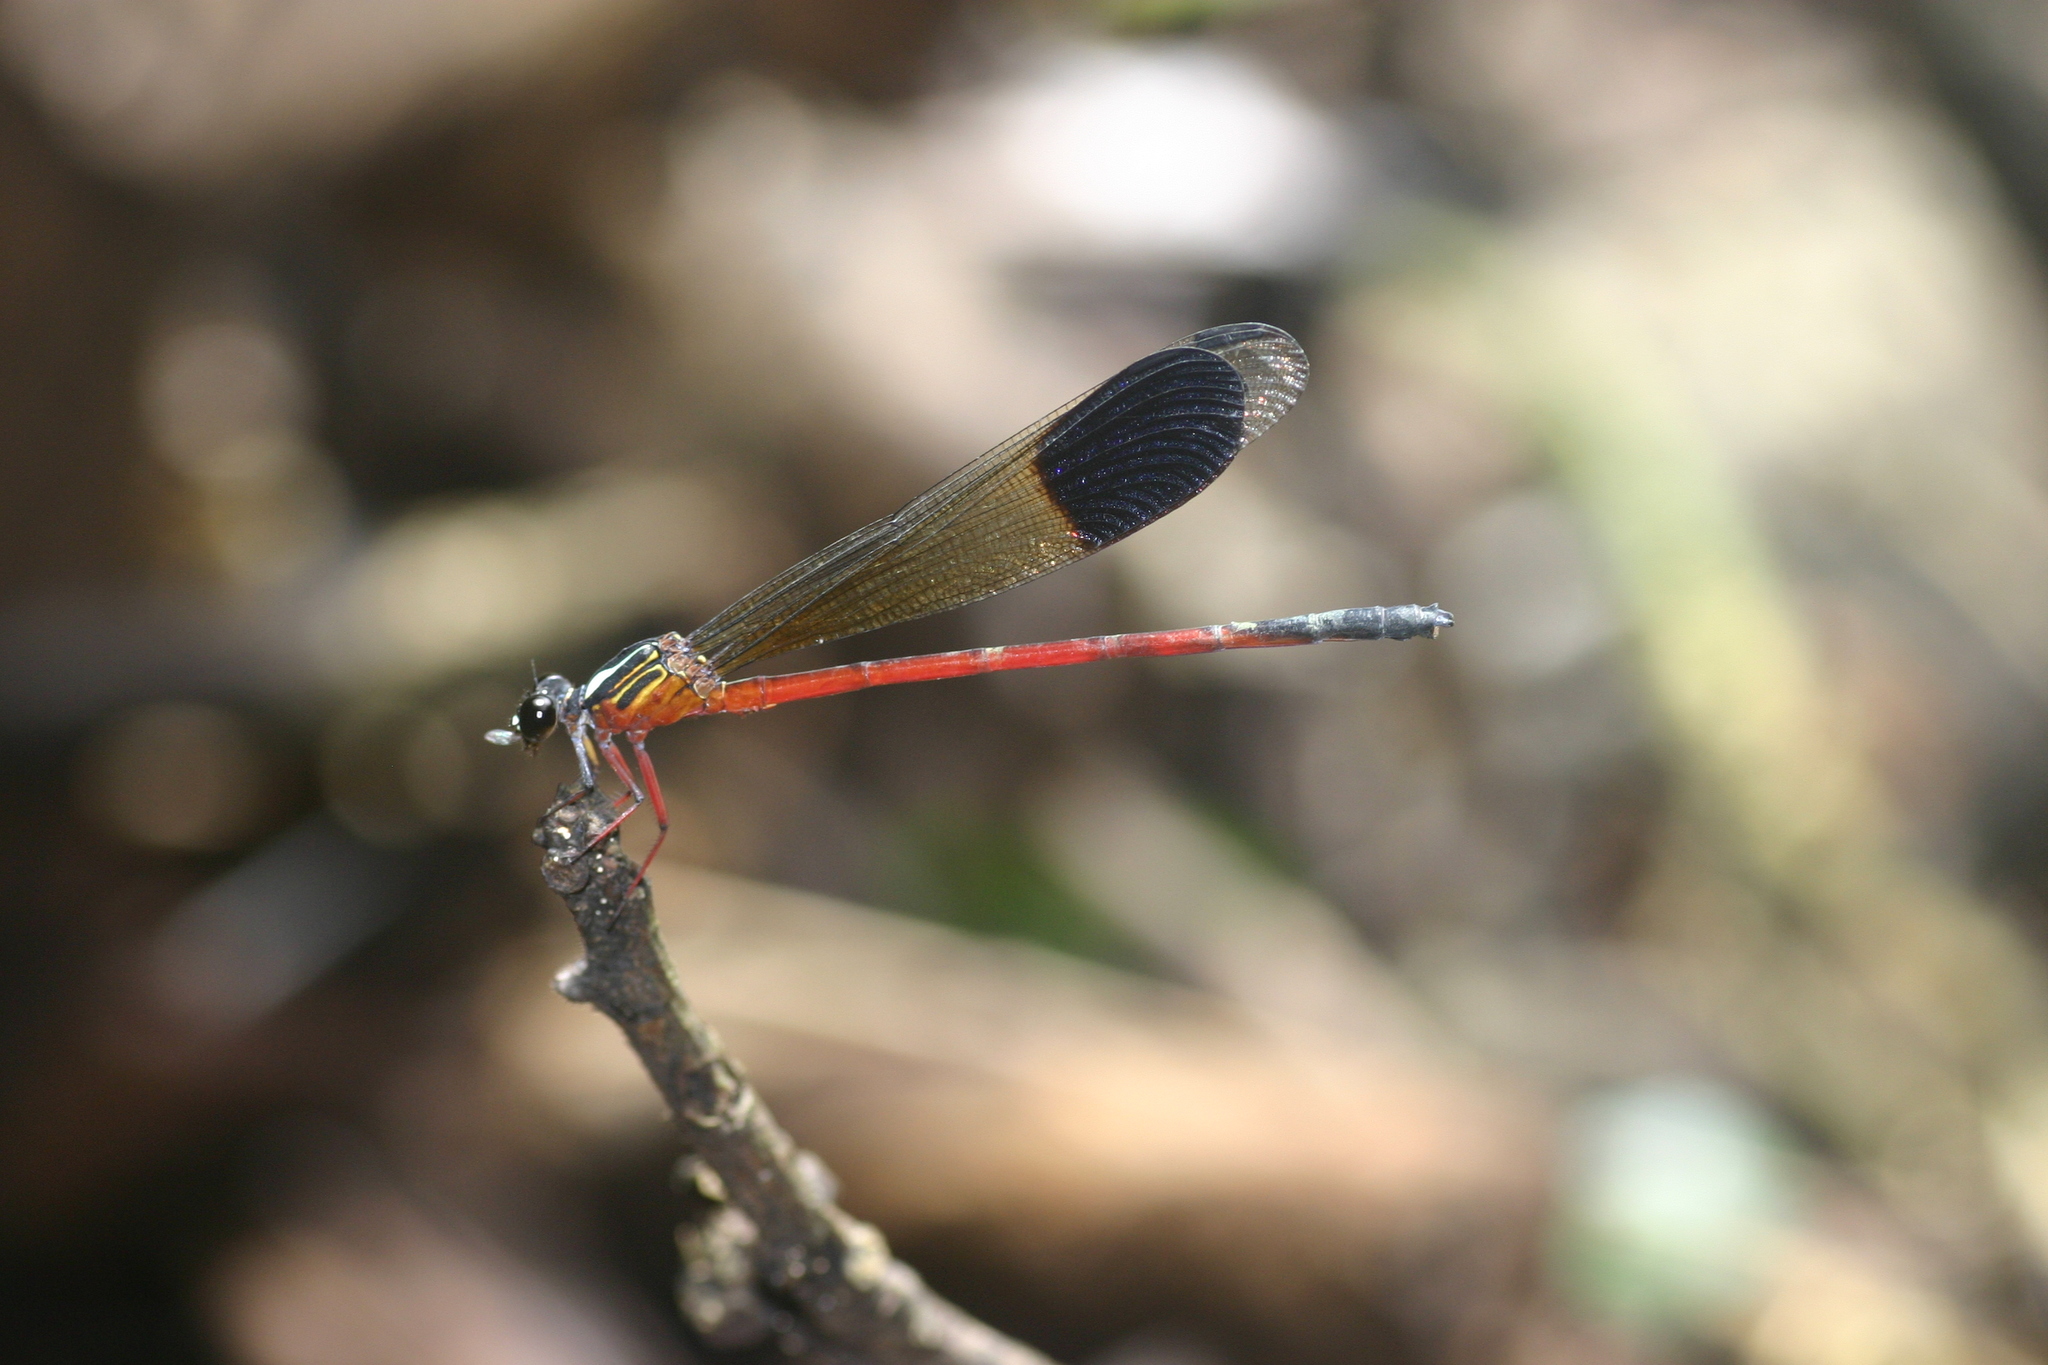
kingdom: Animalia
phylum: Arthropoda
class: Insecta
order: Odonata
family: Euphaeidae
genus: Euphaea
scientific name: Euphaea fraseri
